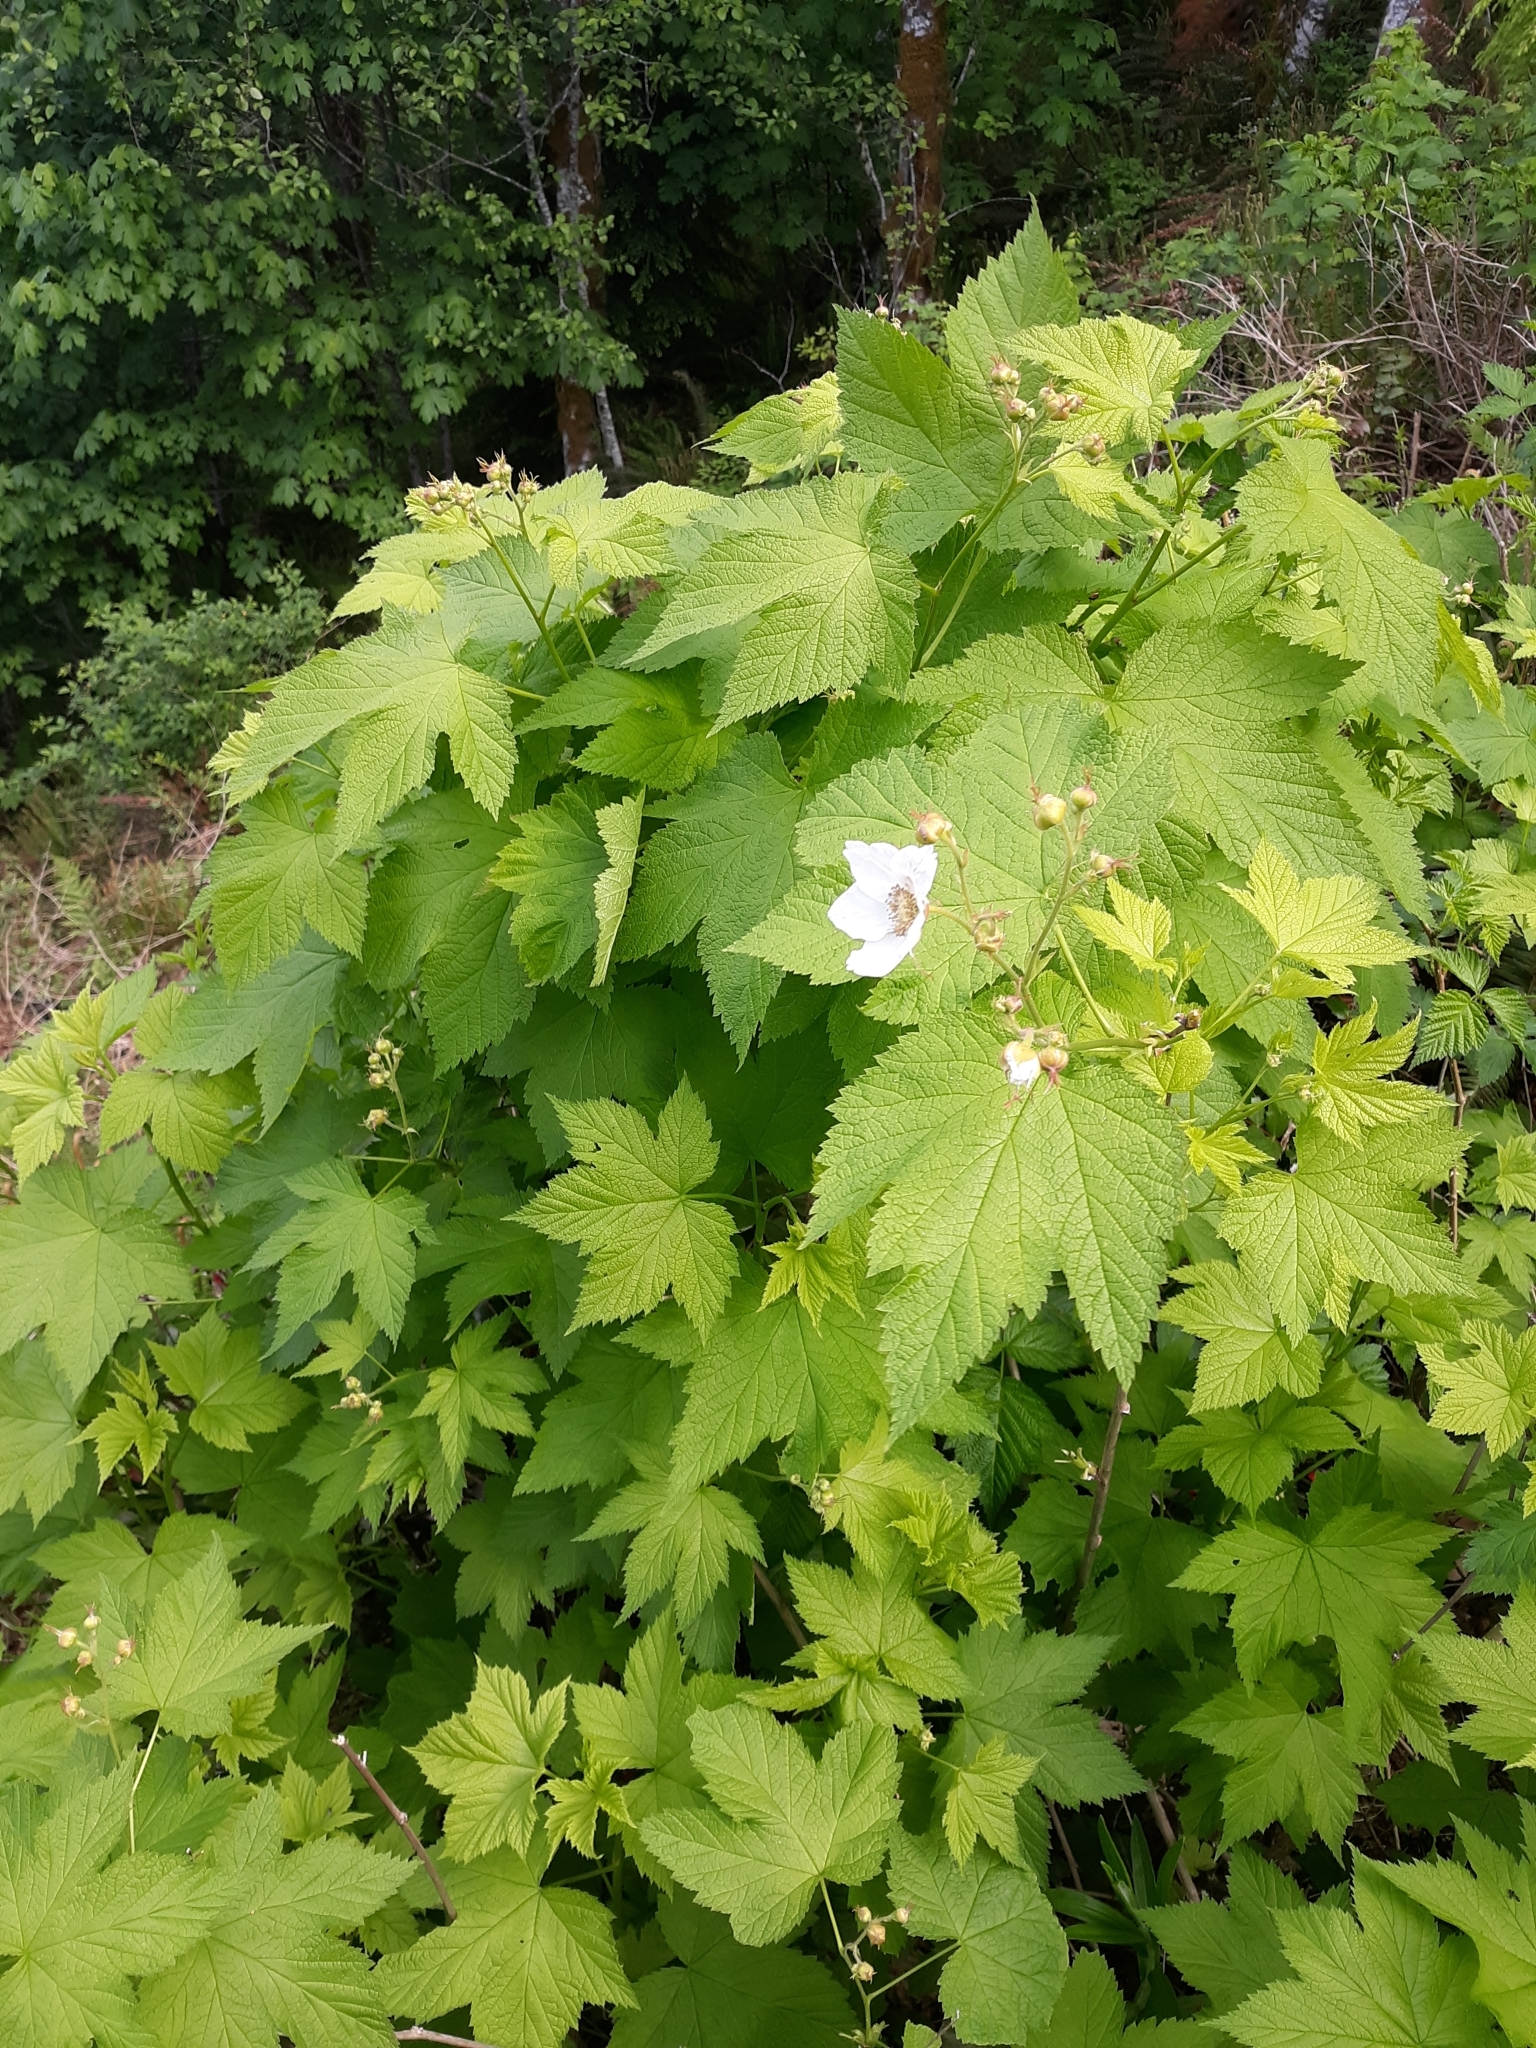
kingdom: Plantae
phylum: Tracheophyta
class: Magnoliopsida
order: Rosales
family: Rosaceae
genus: Rubus
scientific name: Rubus parviflorus
